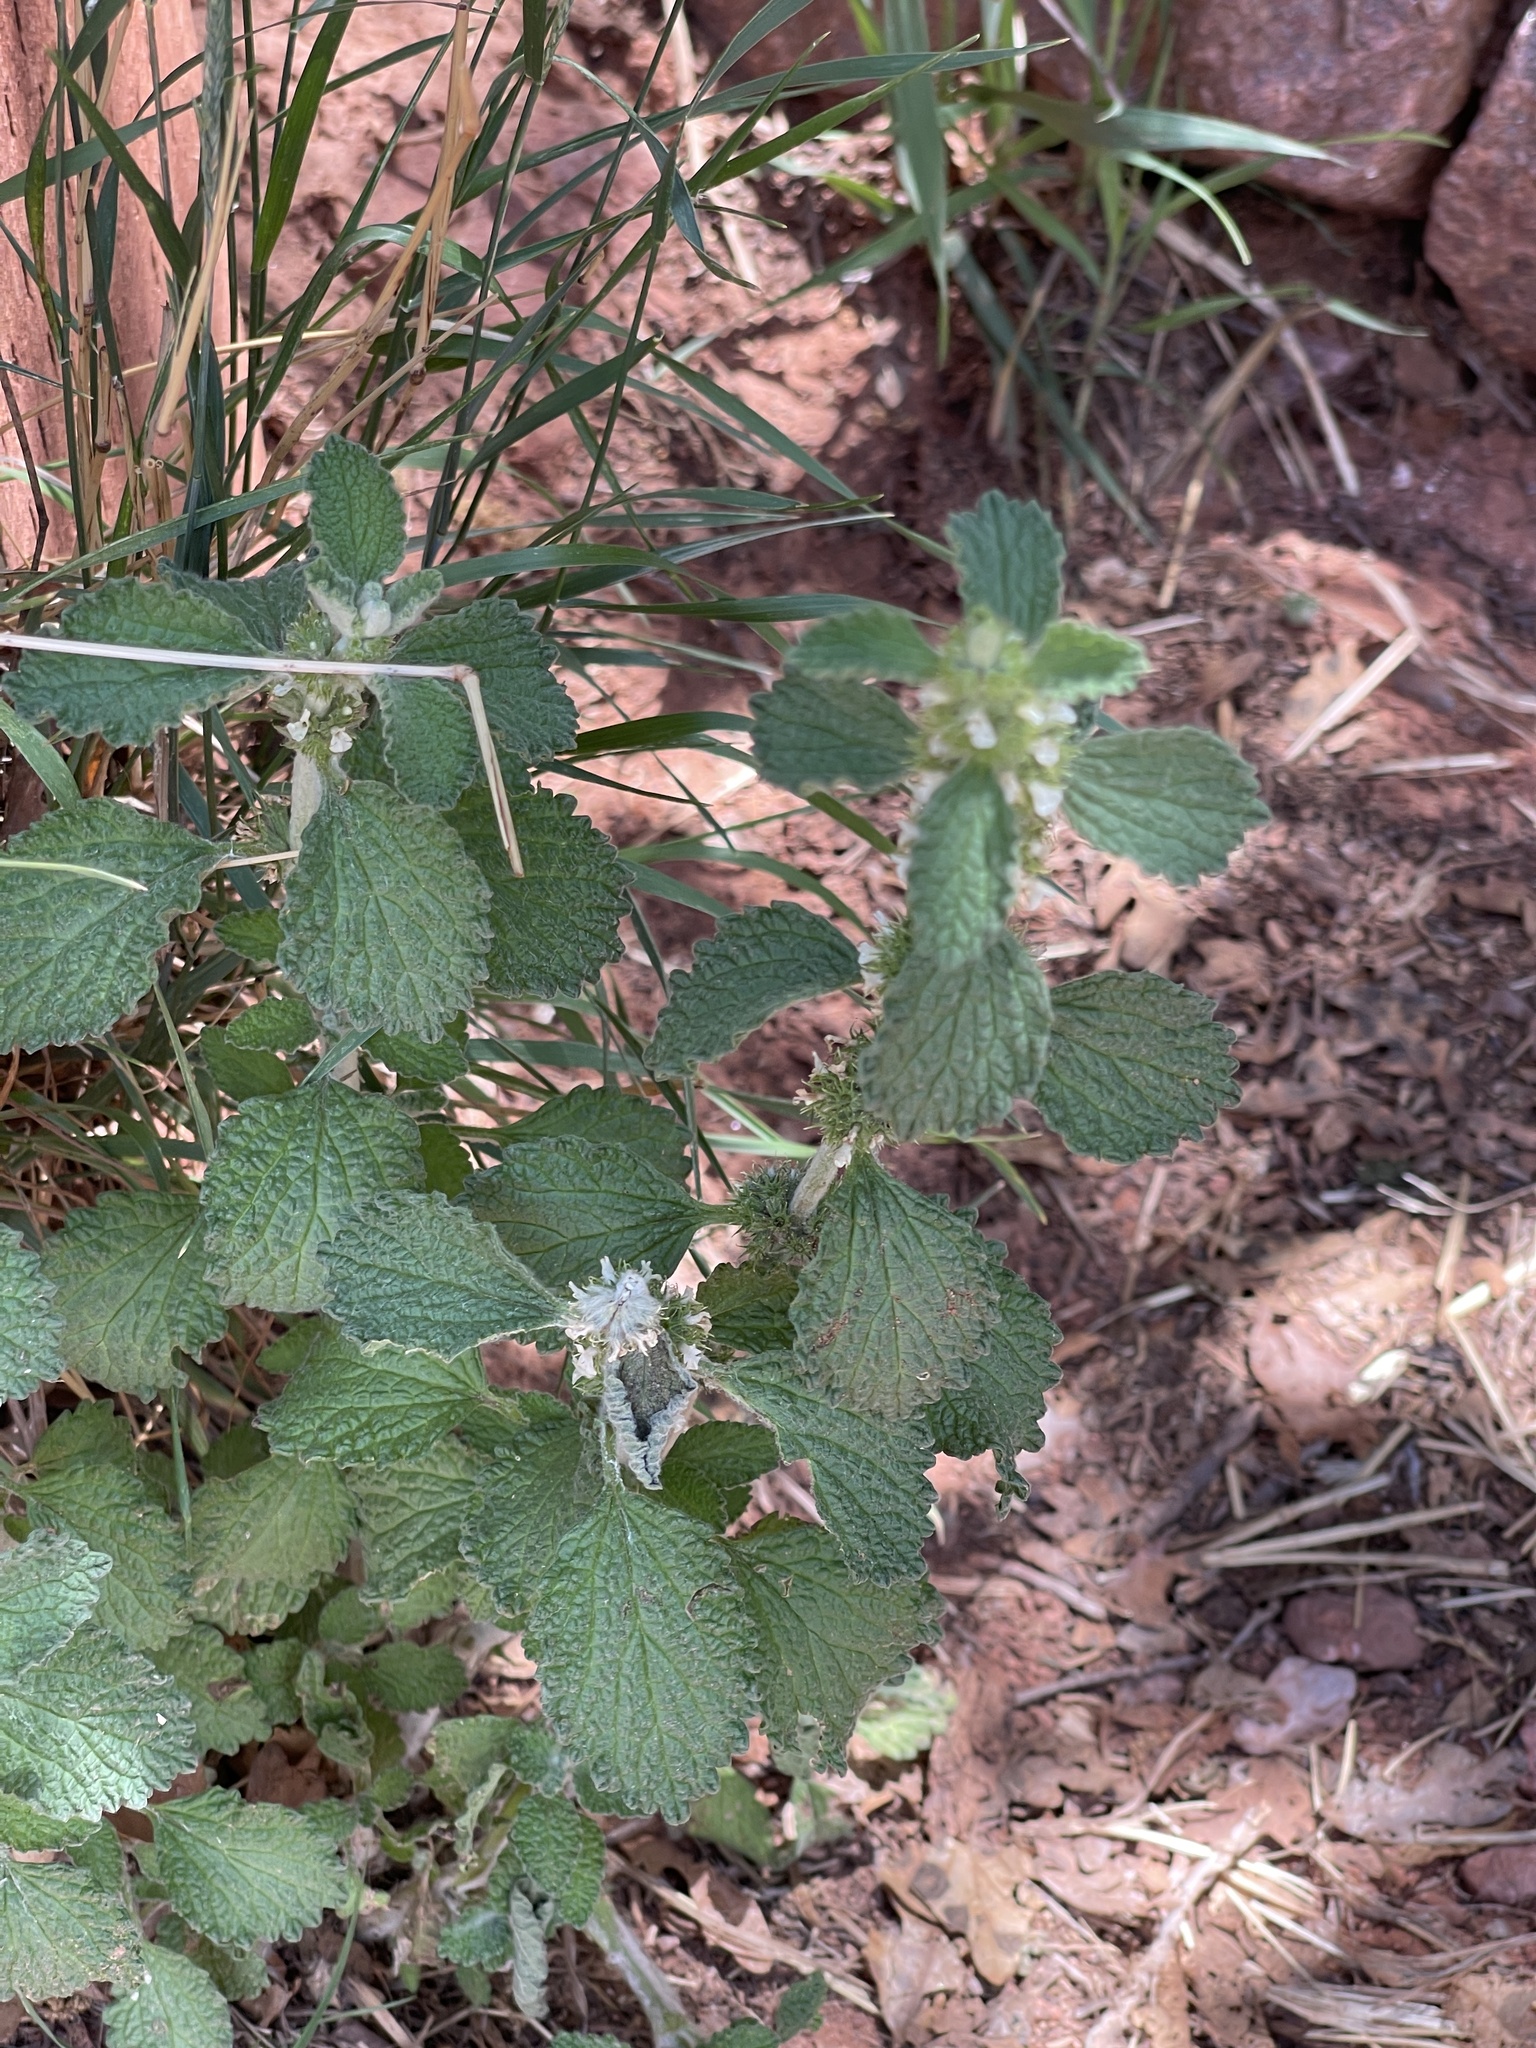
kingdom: Plantae
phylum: Tracheophyta
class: Magnoliopsida
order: Lamiales
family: Lamiaceae
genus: Marrubium
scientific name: Marrubium vulgare
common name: Horehound
